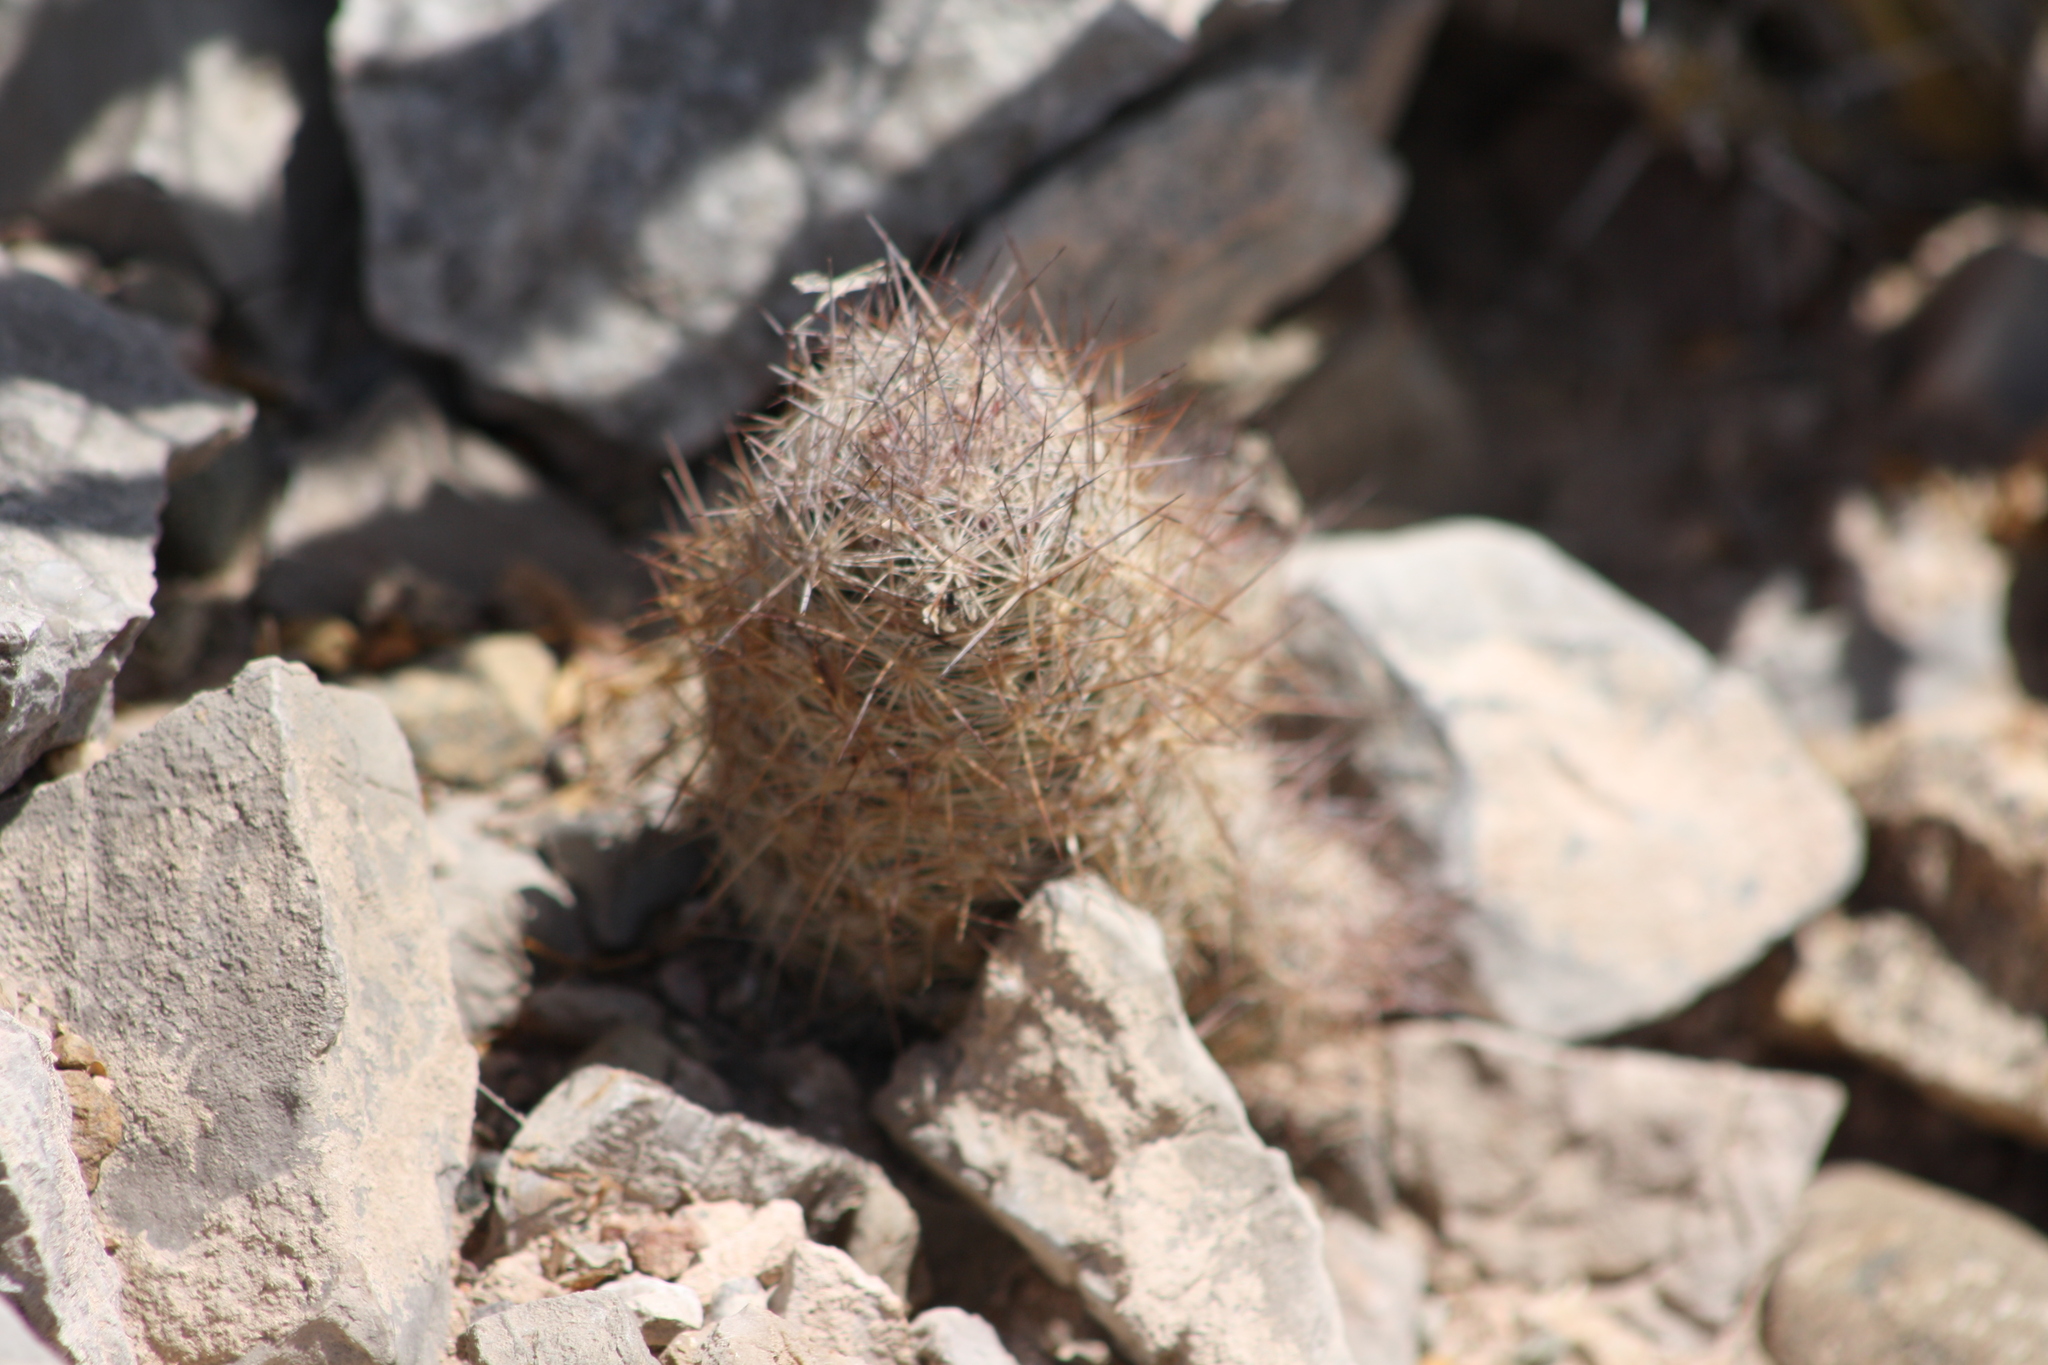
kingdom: Plantae
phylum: Tracheophyta
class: Magnoliopsida
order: Caryophyllales
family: Cactaceae
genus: Pelecyphora
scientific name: Pelecyphora tuberculosa
